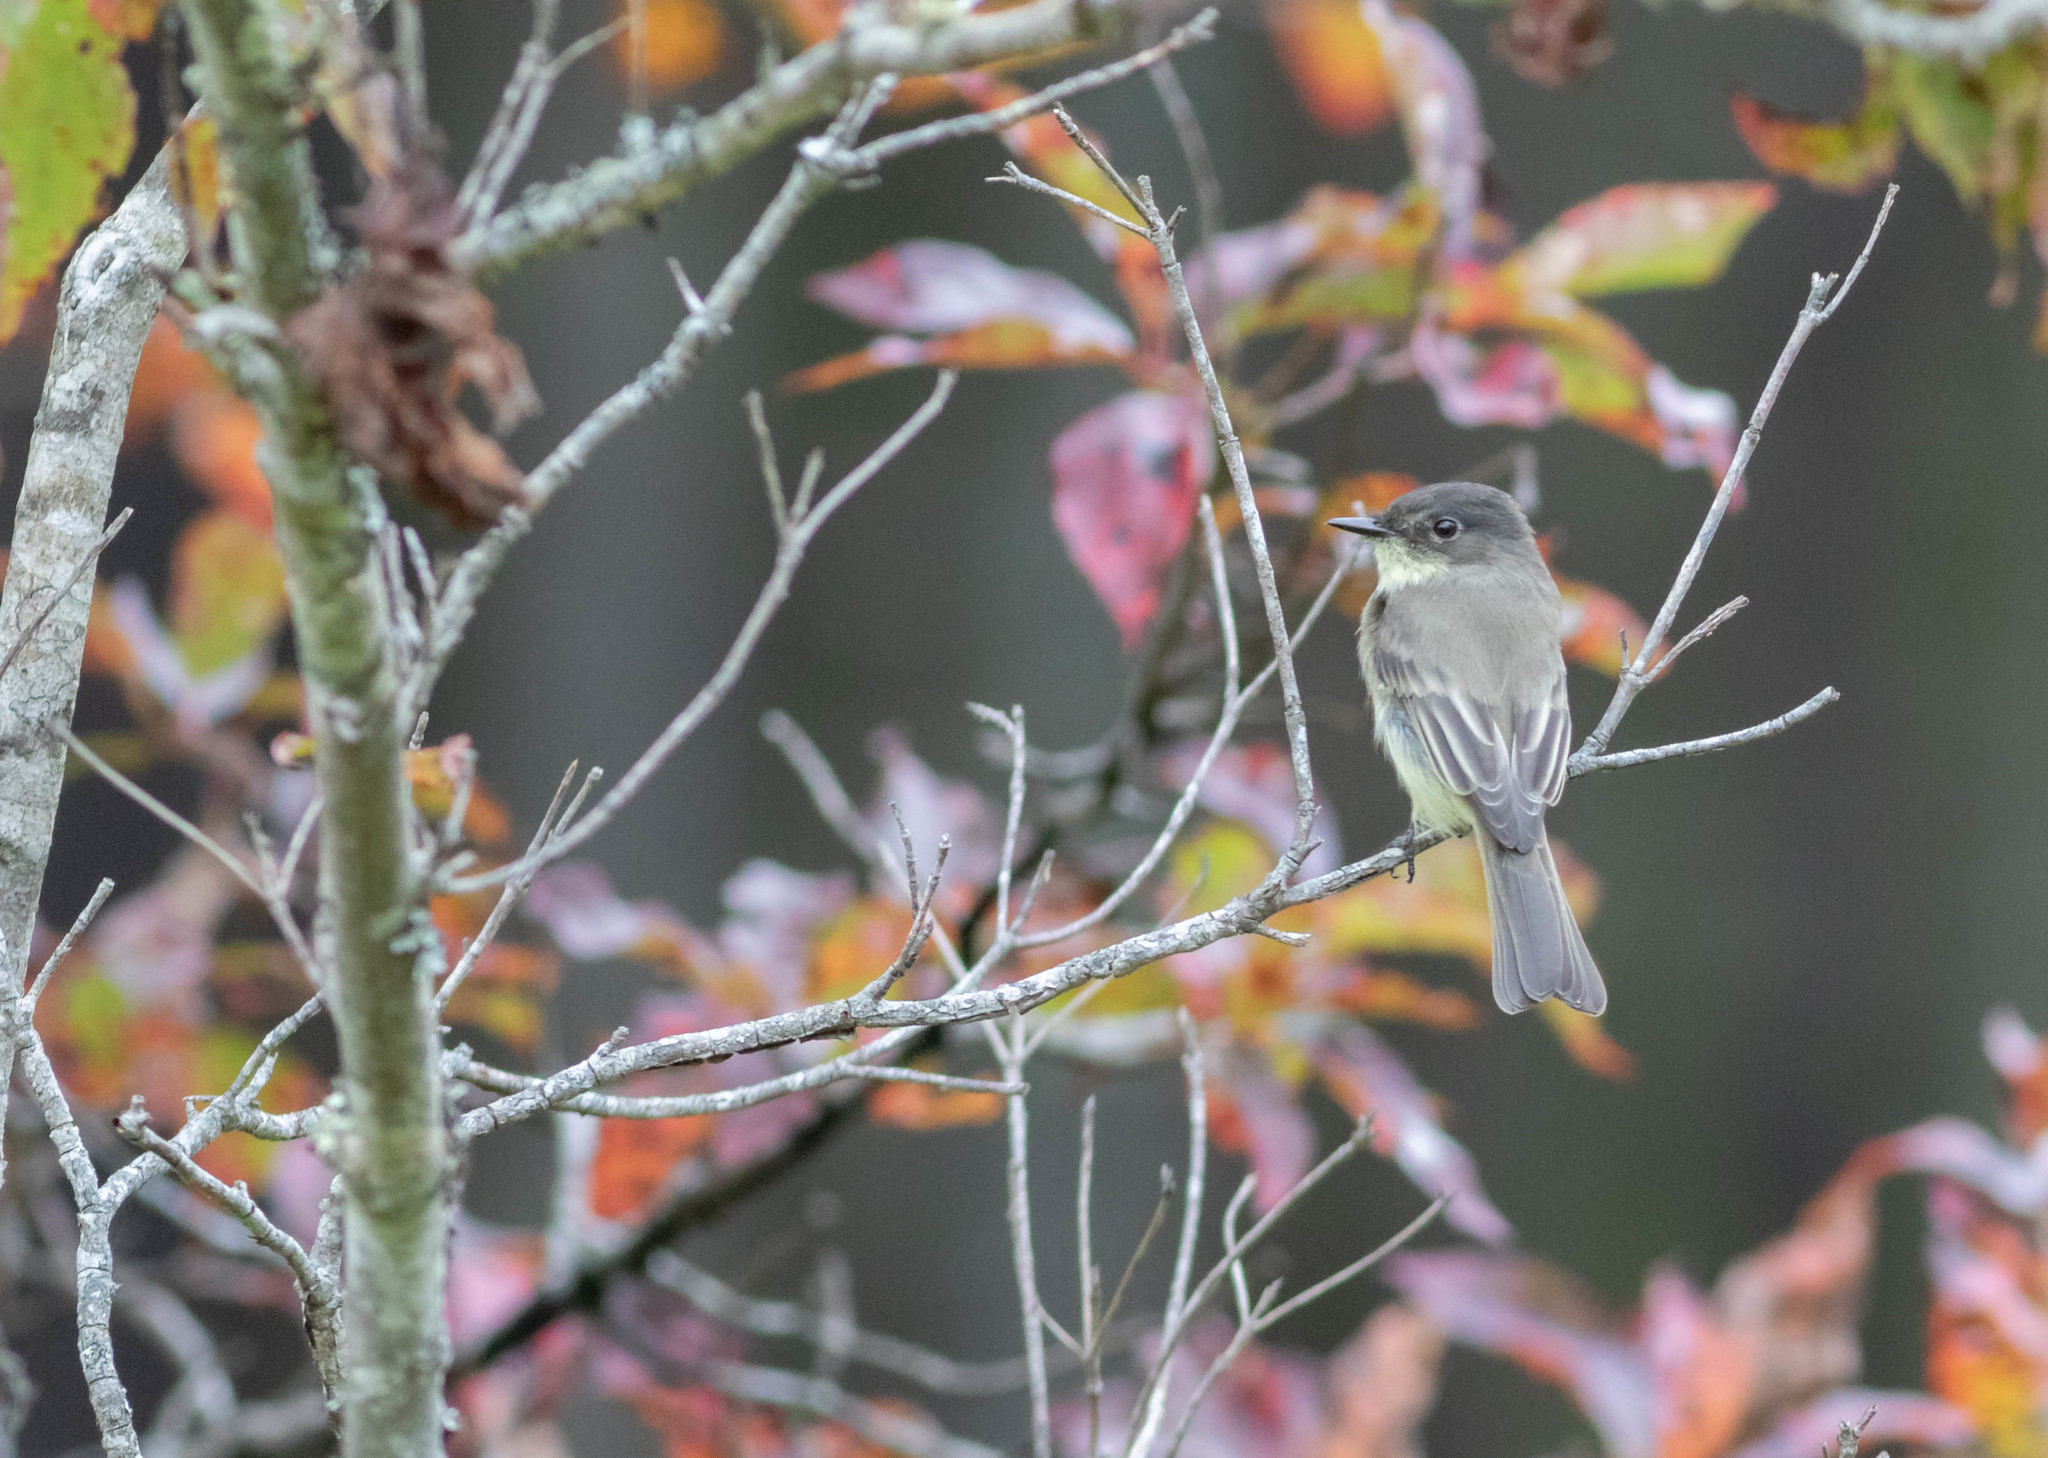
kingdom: Animalia
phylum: Chordata
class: Aves
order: Passeriformes
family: Tyrannidae
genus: Sayornis
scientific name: Sayornis phoebe
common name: Eastern phoebe
